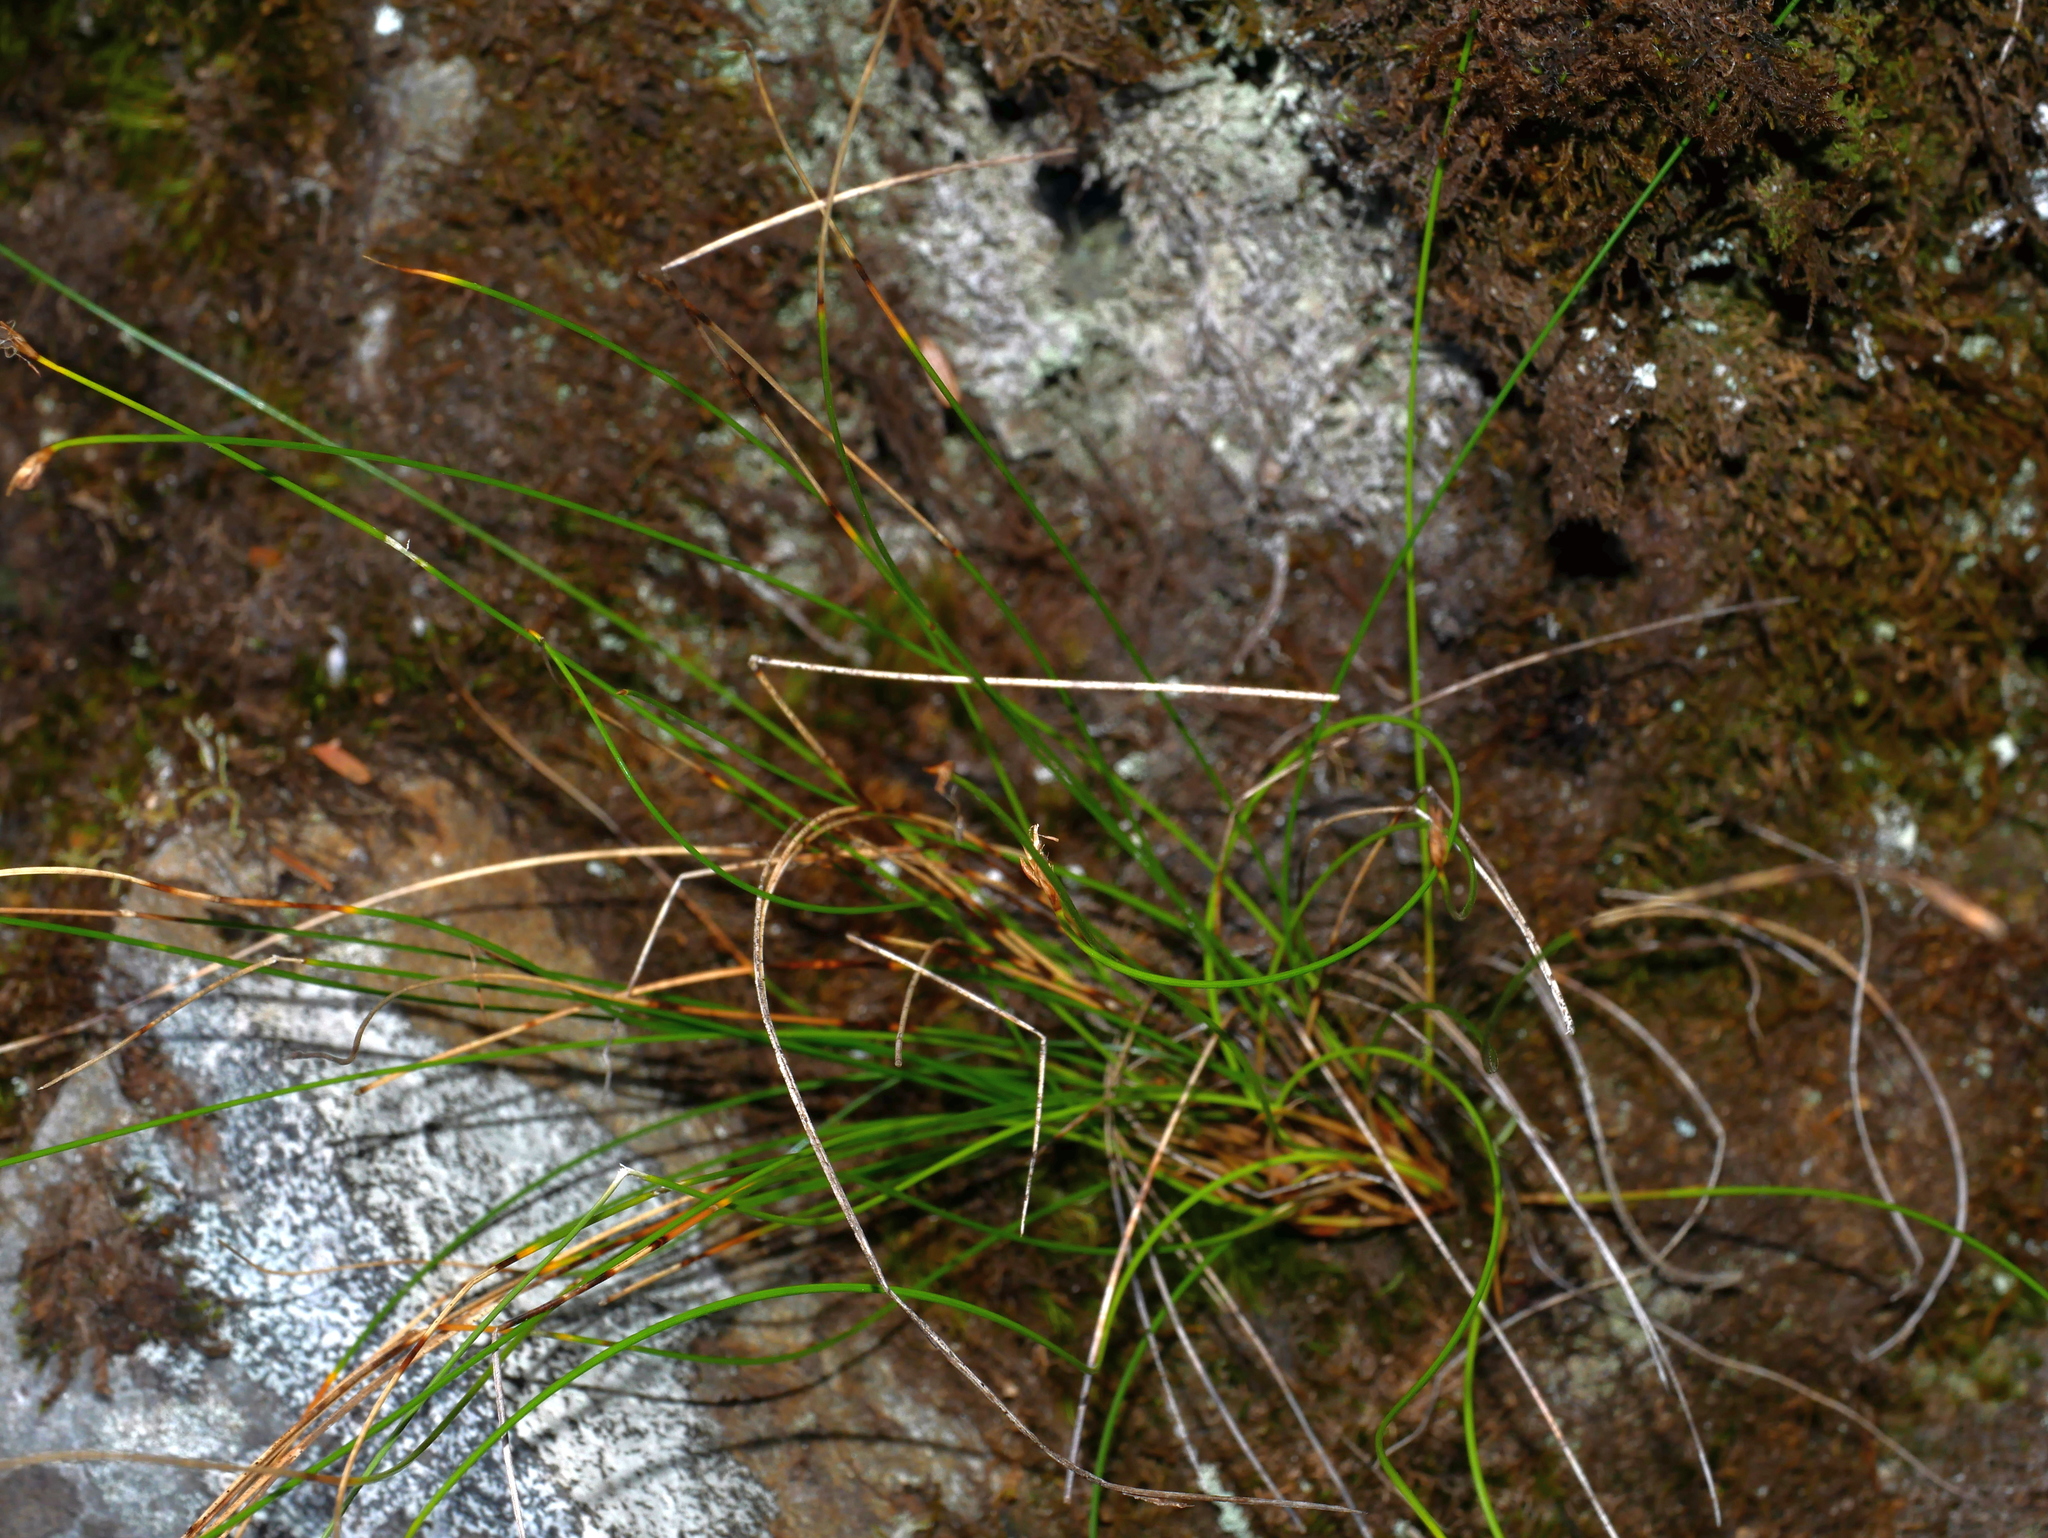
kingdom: Plantae
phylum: Tracheophyta
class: Liliopsida
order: Poales
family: Cyperaceae
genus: Trichophorum
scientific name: Trichophorum subcapitatum
